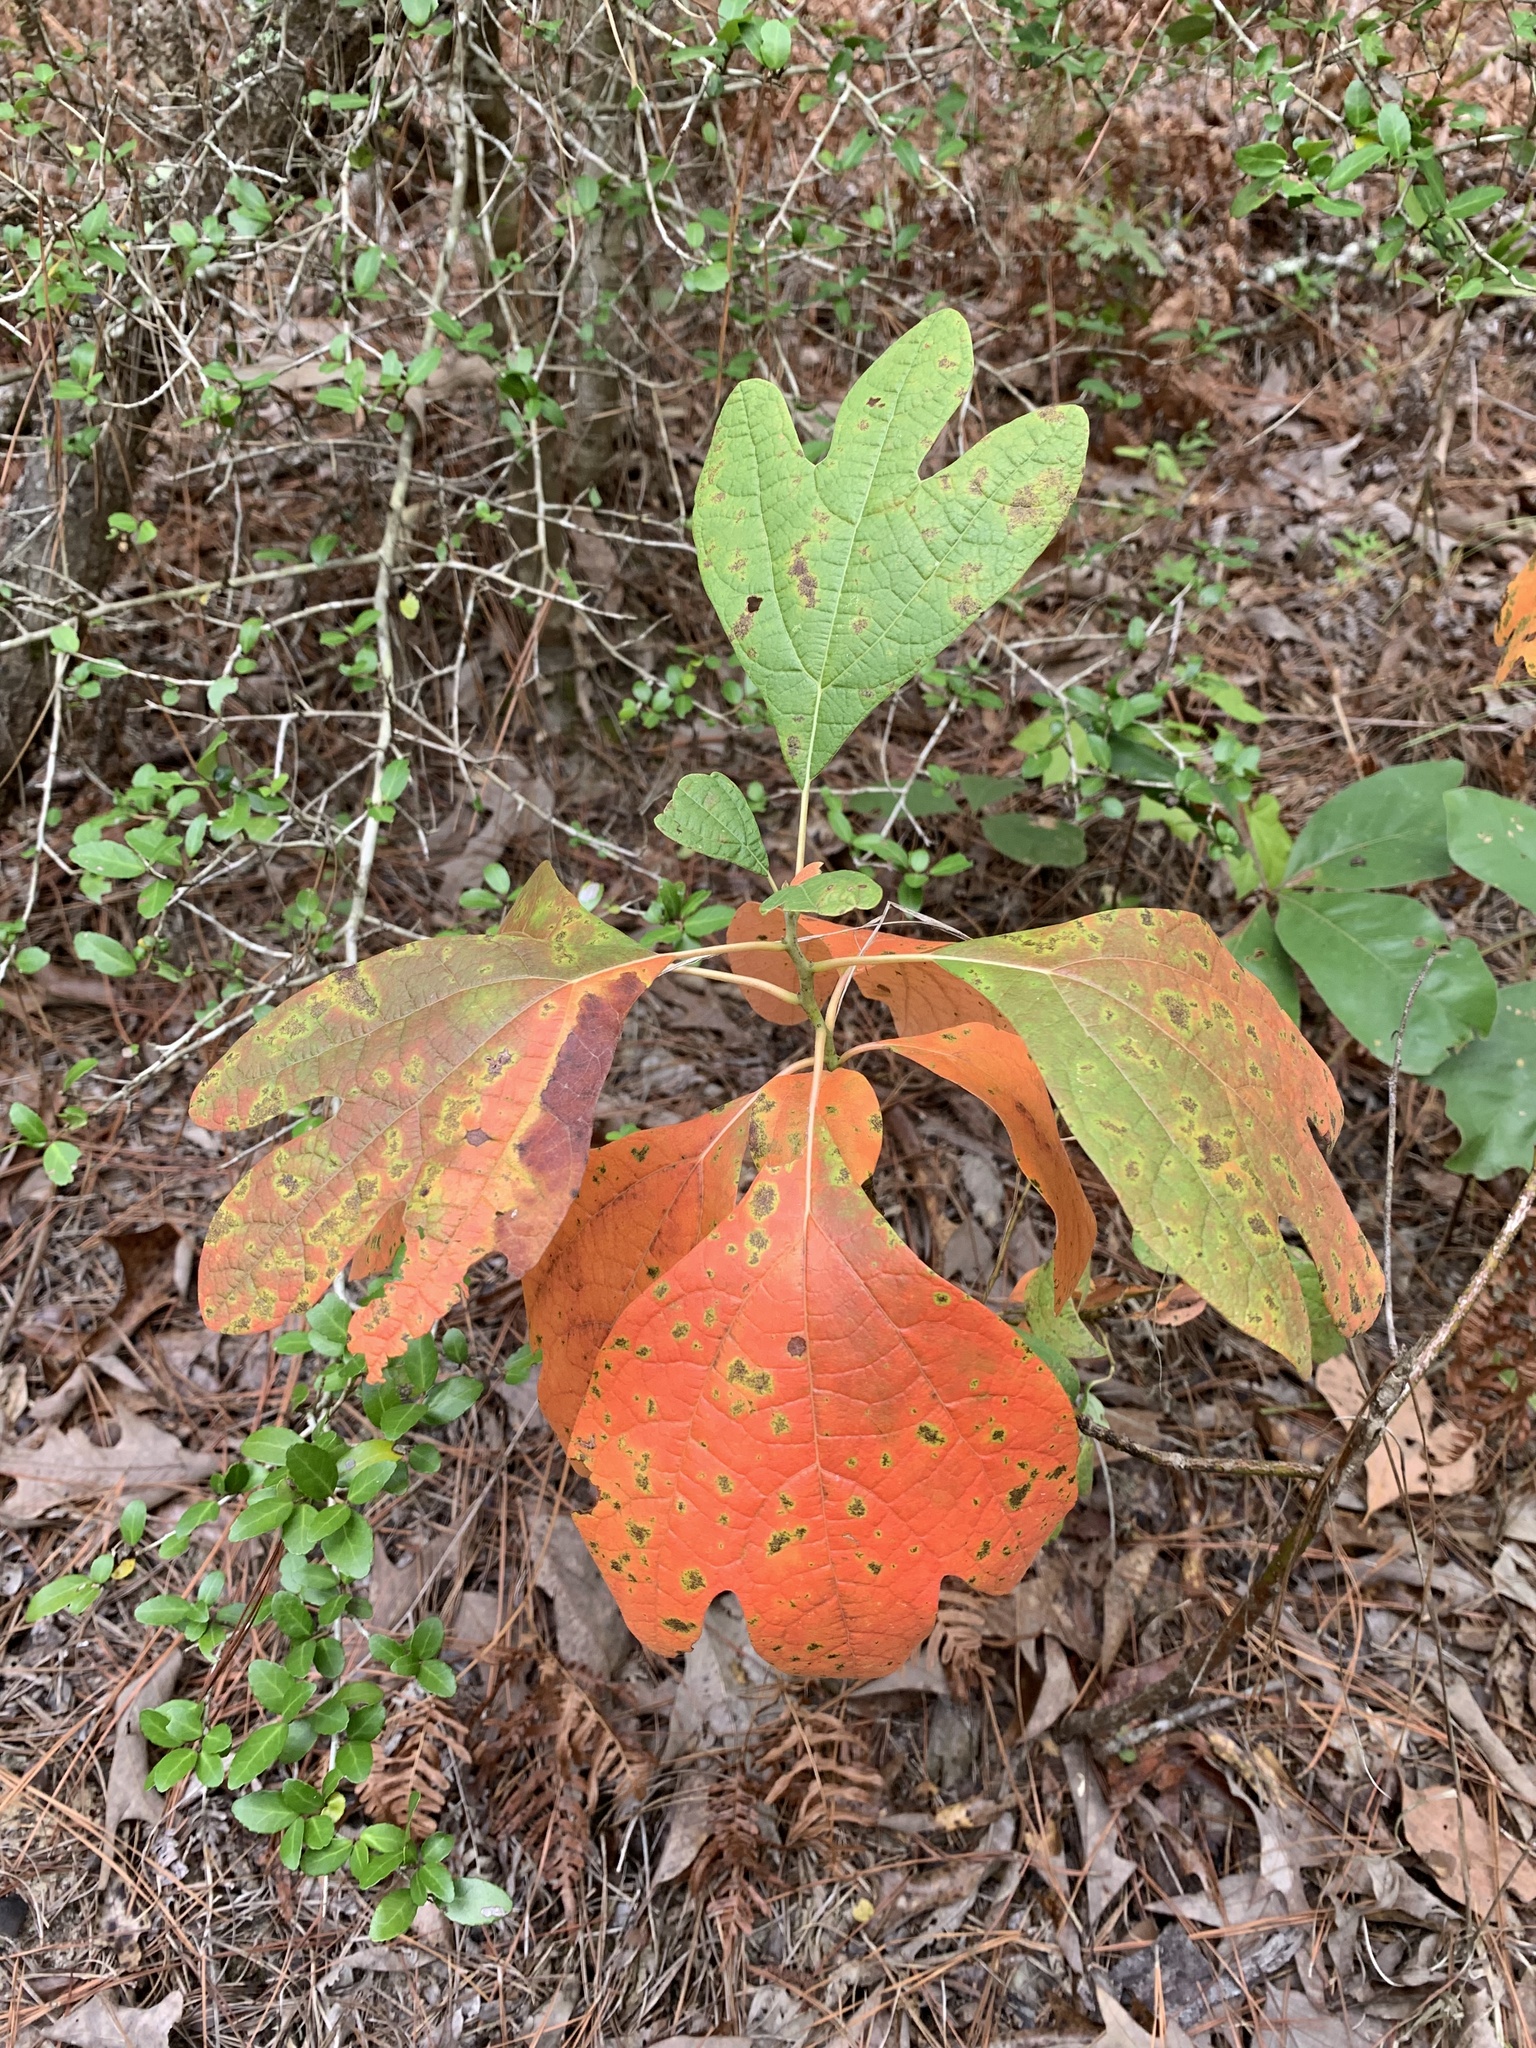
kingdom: Plantae
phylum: Tracheophyta
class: Magnoliopsida
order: Laurales
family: Lauraceae
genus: Sassafras
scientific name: Sassafras albidum
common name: Sassafras
